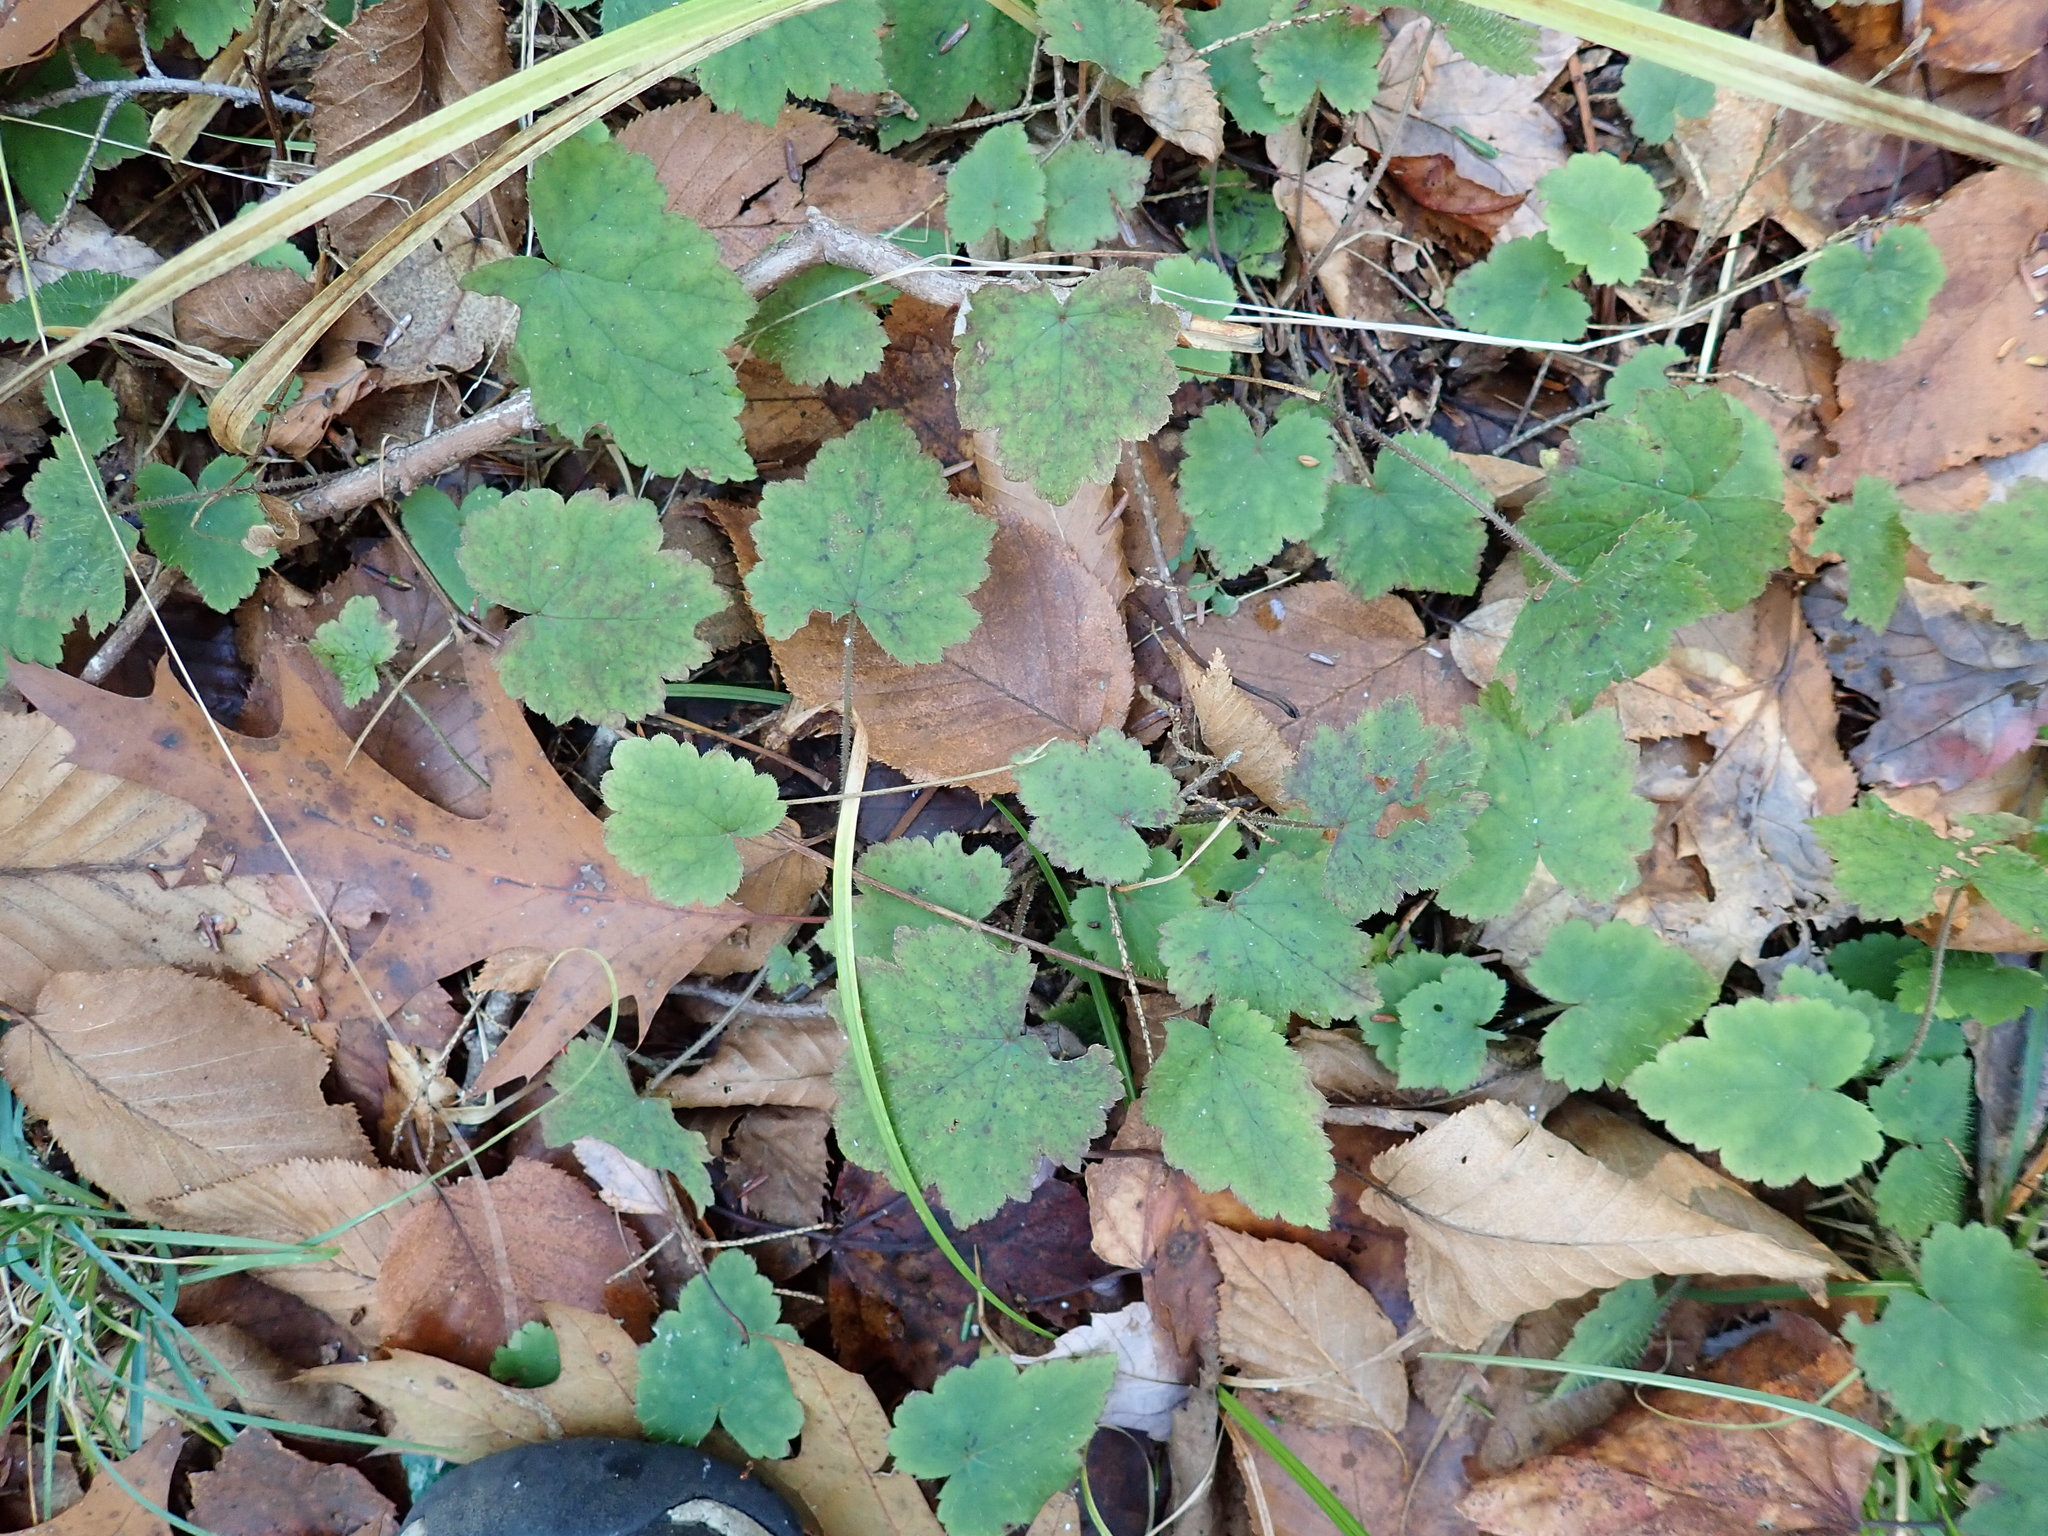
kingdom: Plantae
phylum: Tracheophyta
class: Magnoliopsida
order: Saxifragales
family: Saxifragaceae
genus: Tiarella
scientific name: Tiarella stolonifera
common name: Stoloniferous foamflower
